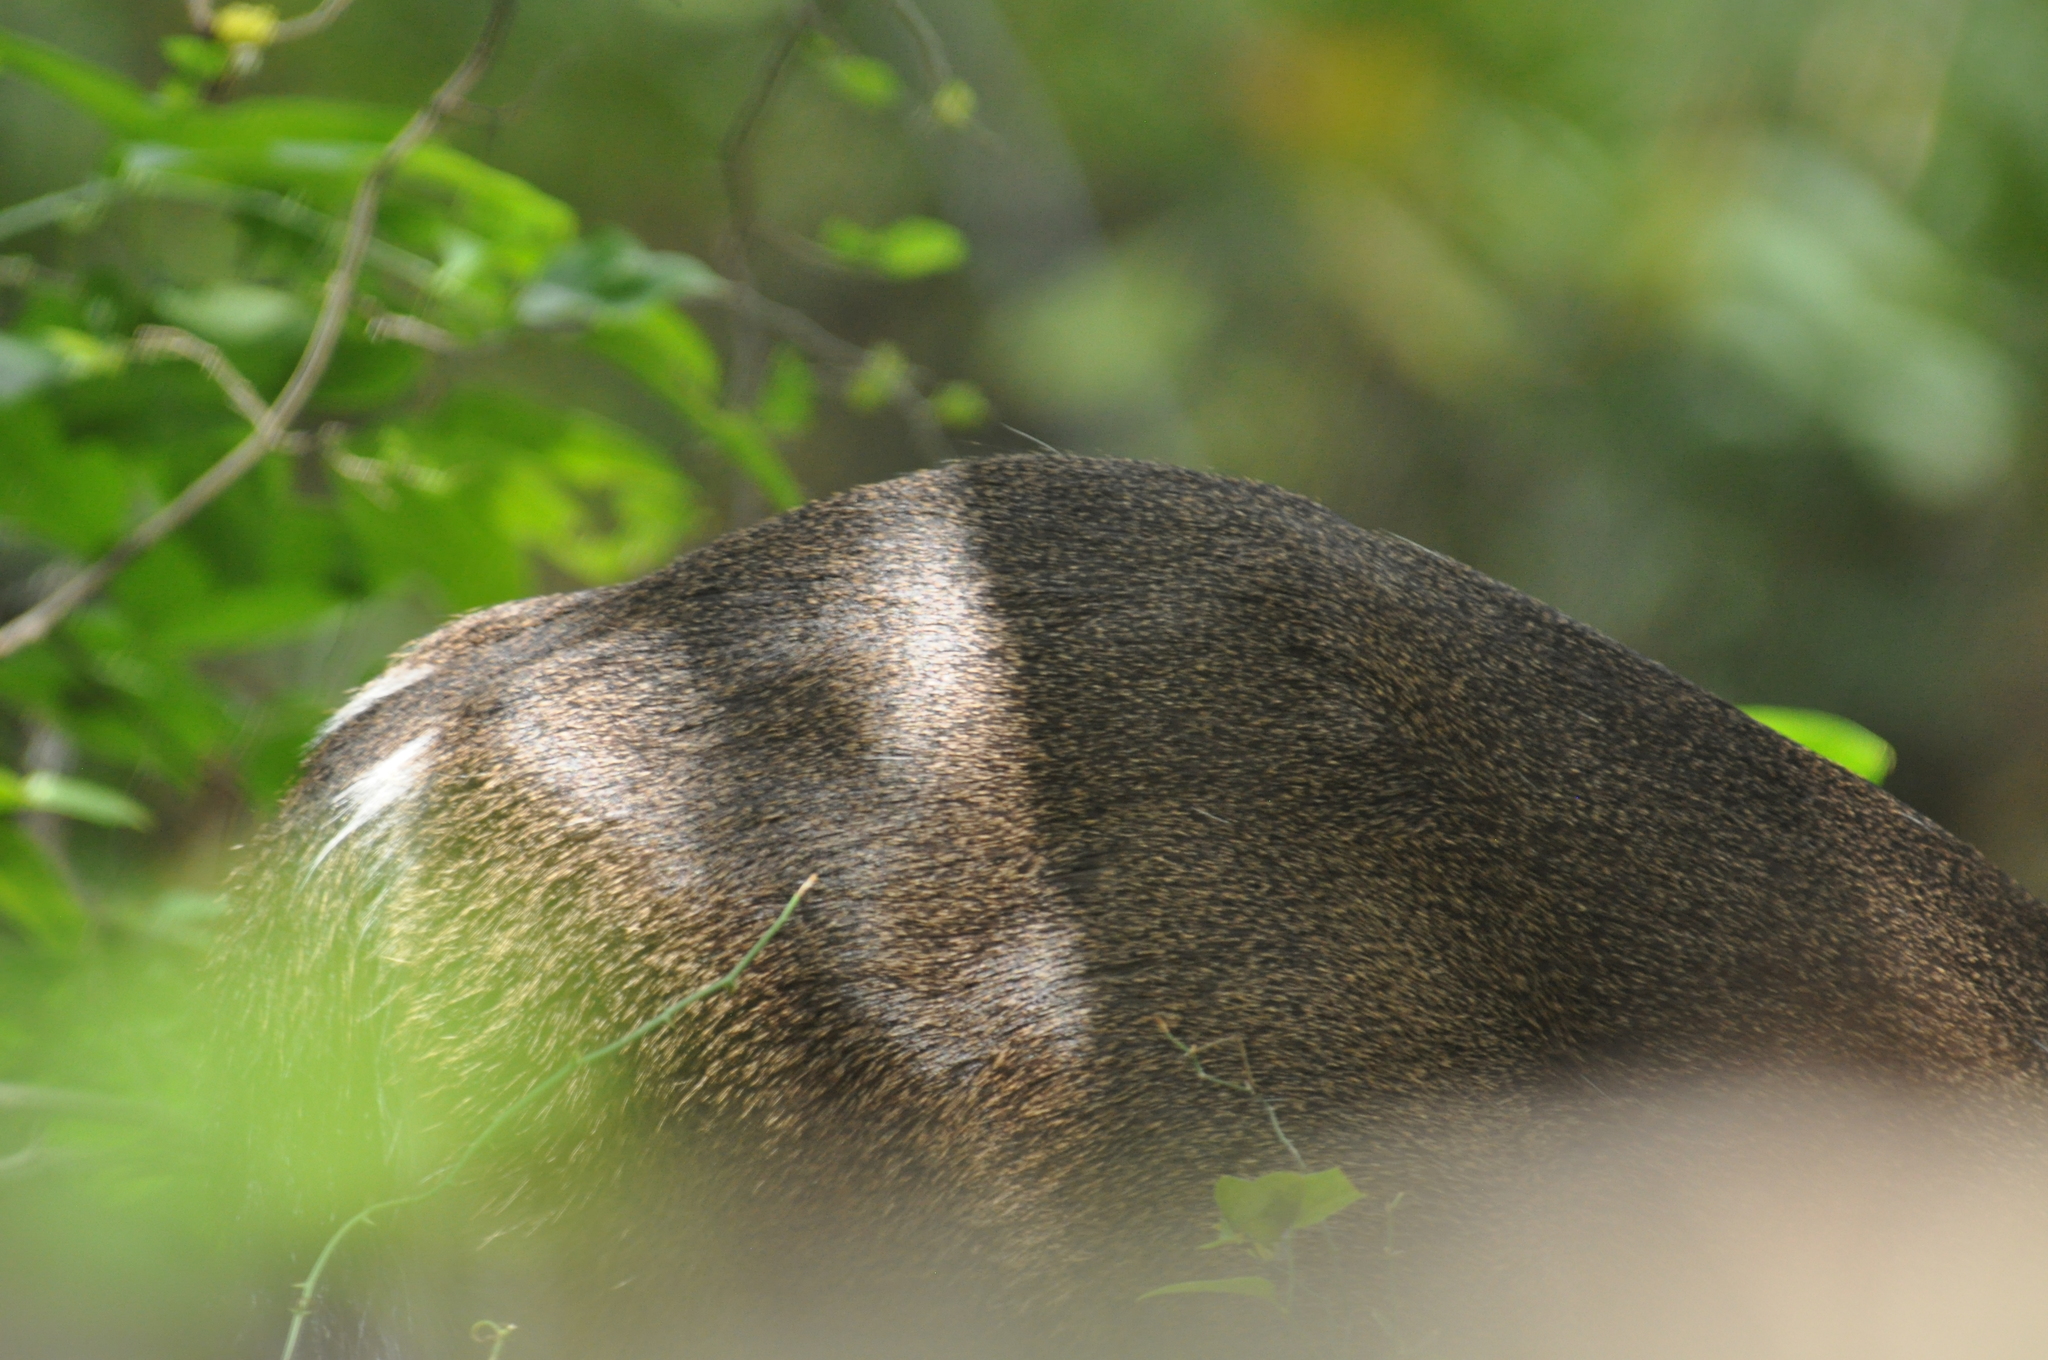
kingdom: Animalia
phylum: Chordata
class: Mammalia
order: Artiodactyla
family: Cervidae
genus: Odocoileus
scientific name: Odocoileus virginianus
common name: White-tailed deer
